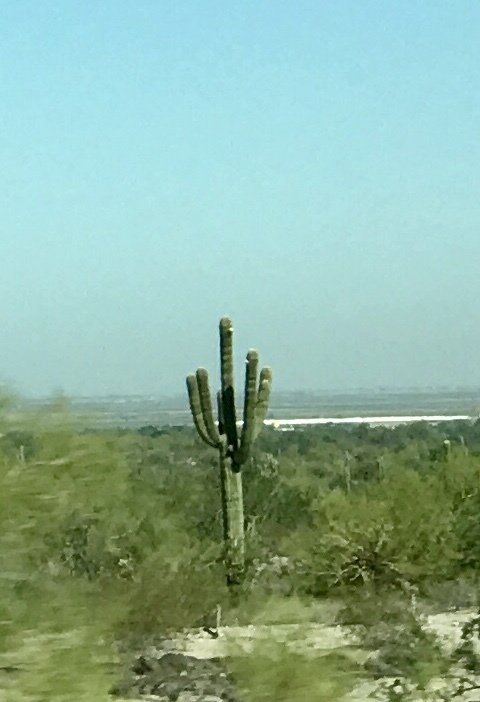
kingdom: Plantae
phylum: Tracheophyta
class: Magnoliopsida
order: Caryophyllales
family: Cactaceae
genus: Carnegiea
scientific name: Carnegiea gigantea
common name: Saguaro
